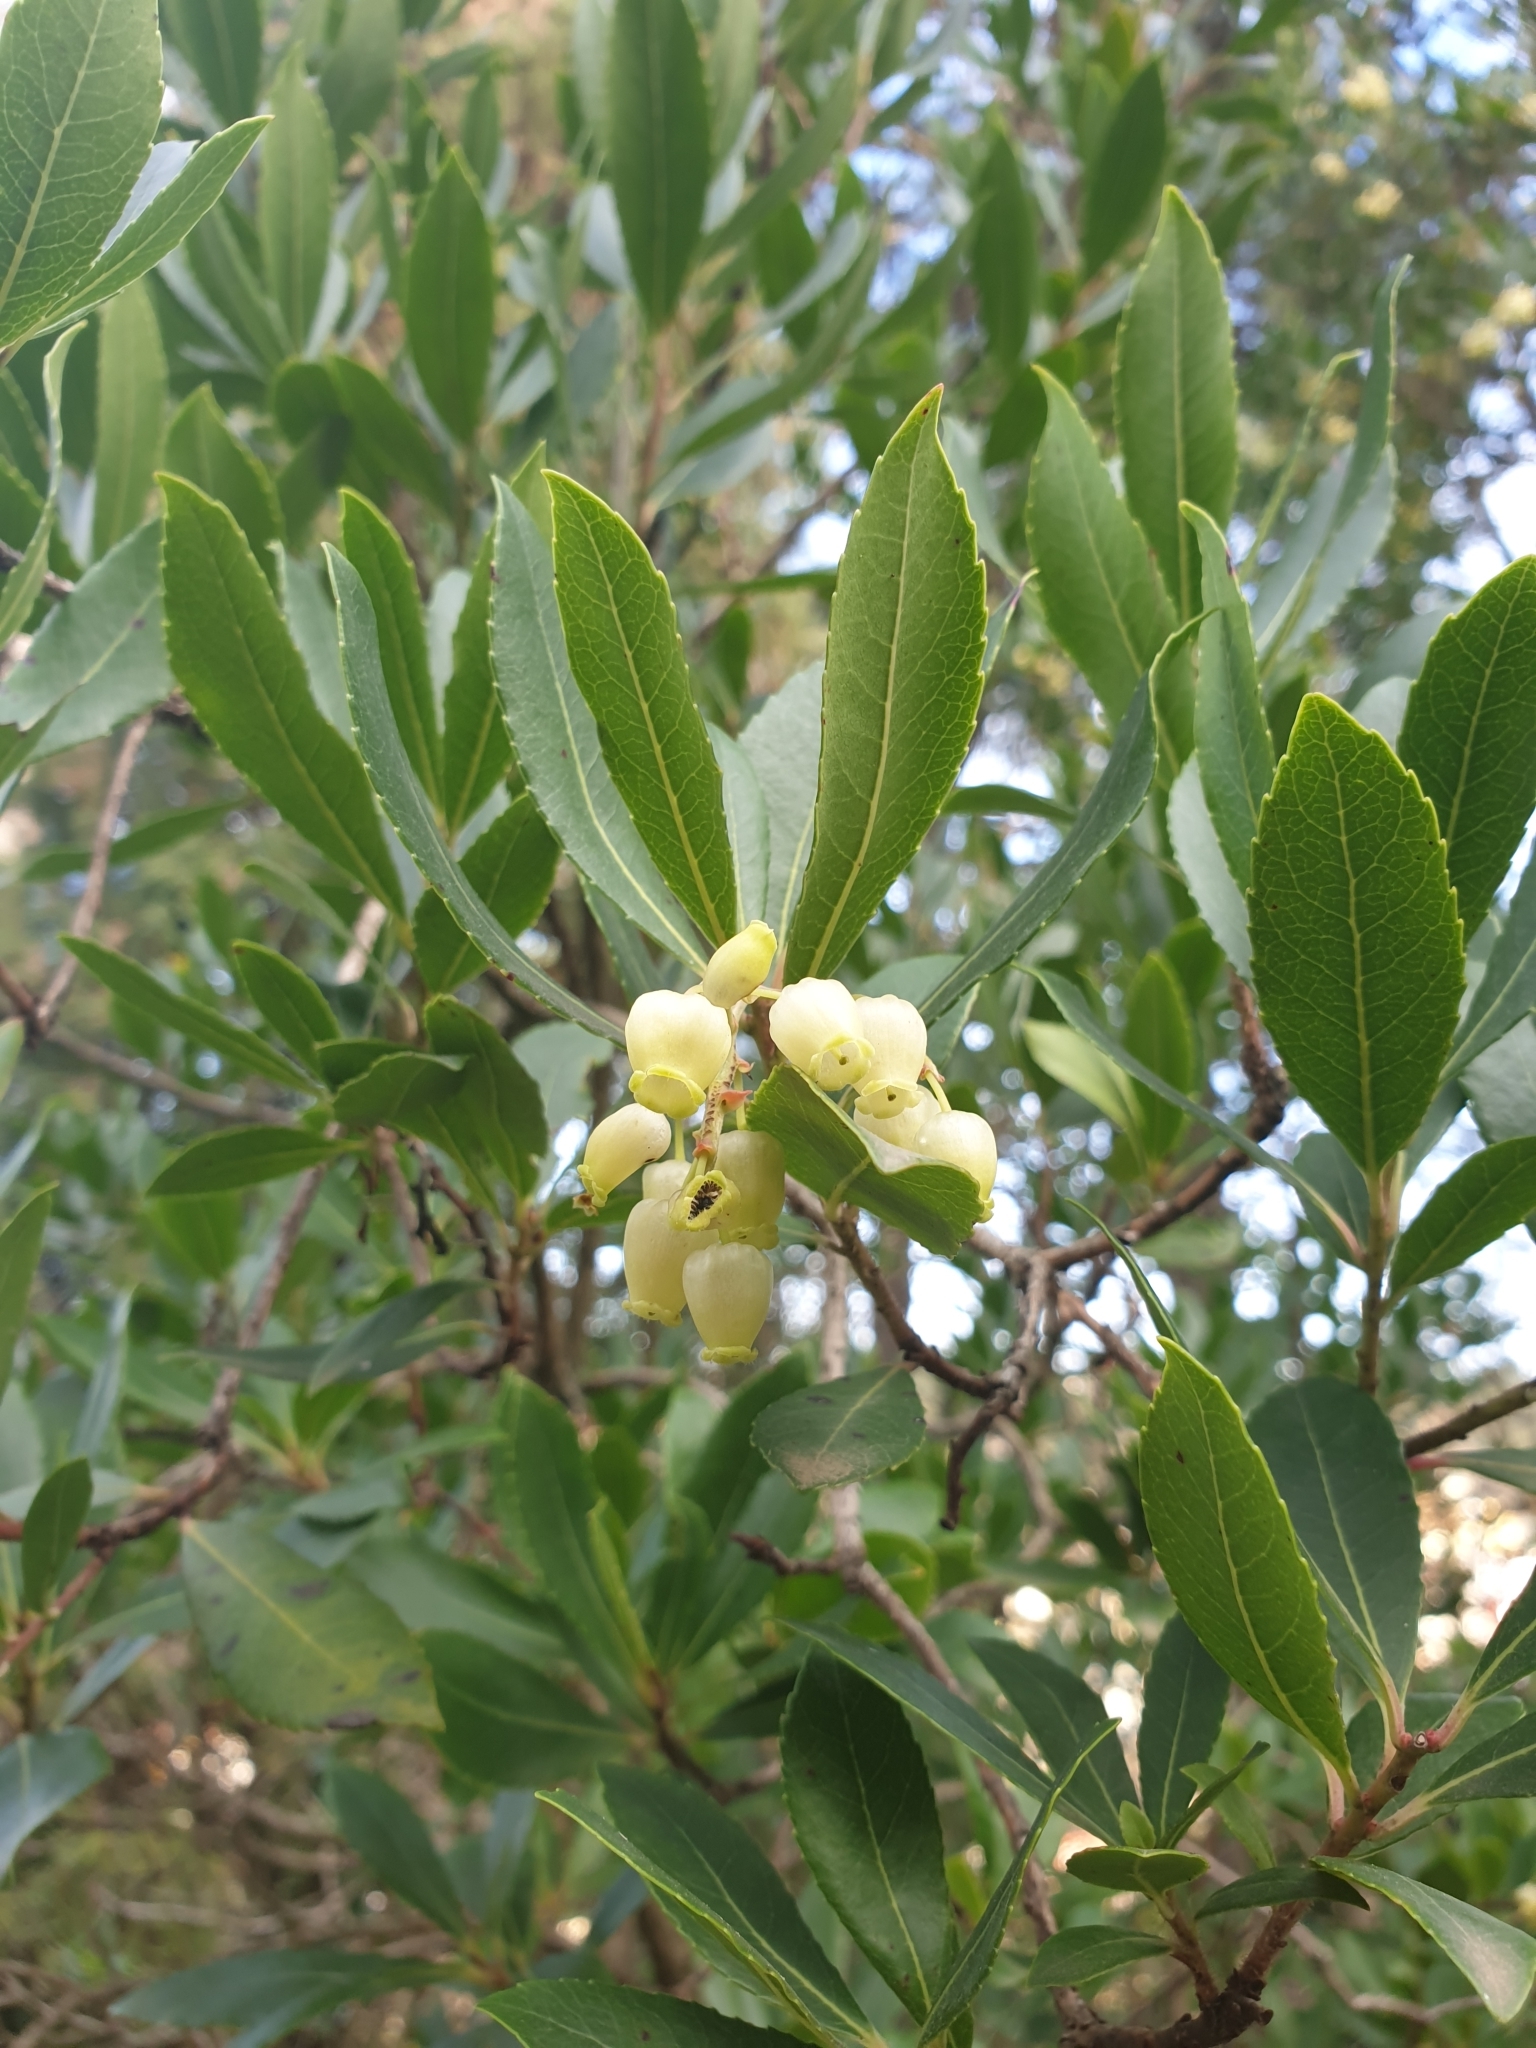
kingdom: Plantae
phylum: Tracheophyta
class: Magnoliopsida
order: Ericales
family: Ericaceae
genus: Arbutus
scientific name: Arbutus unedo
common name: Strawberry-tree
